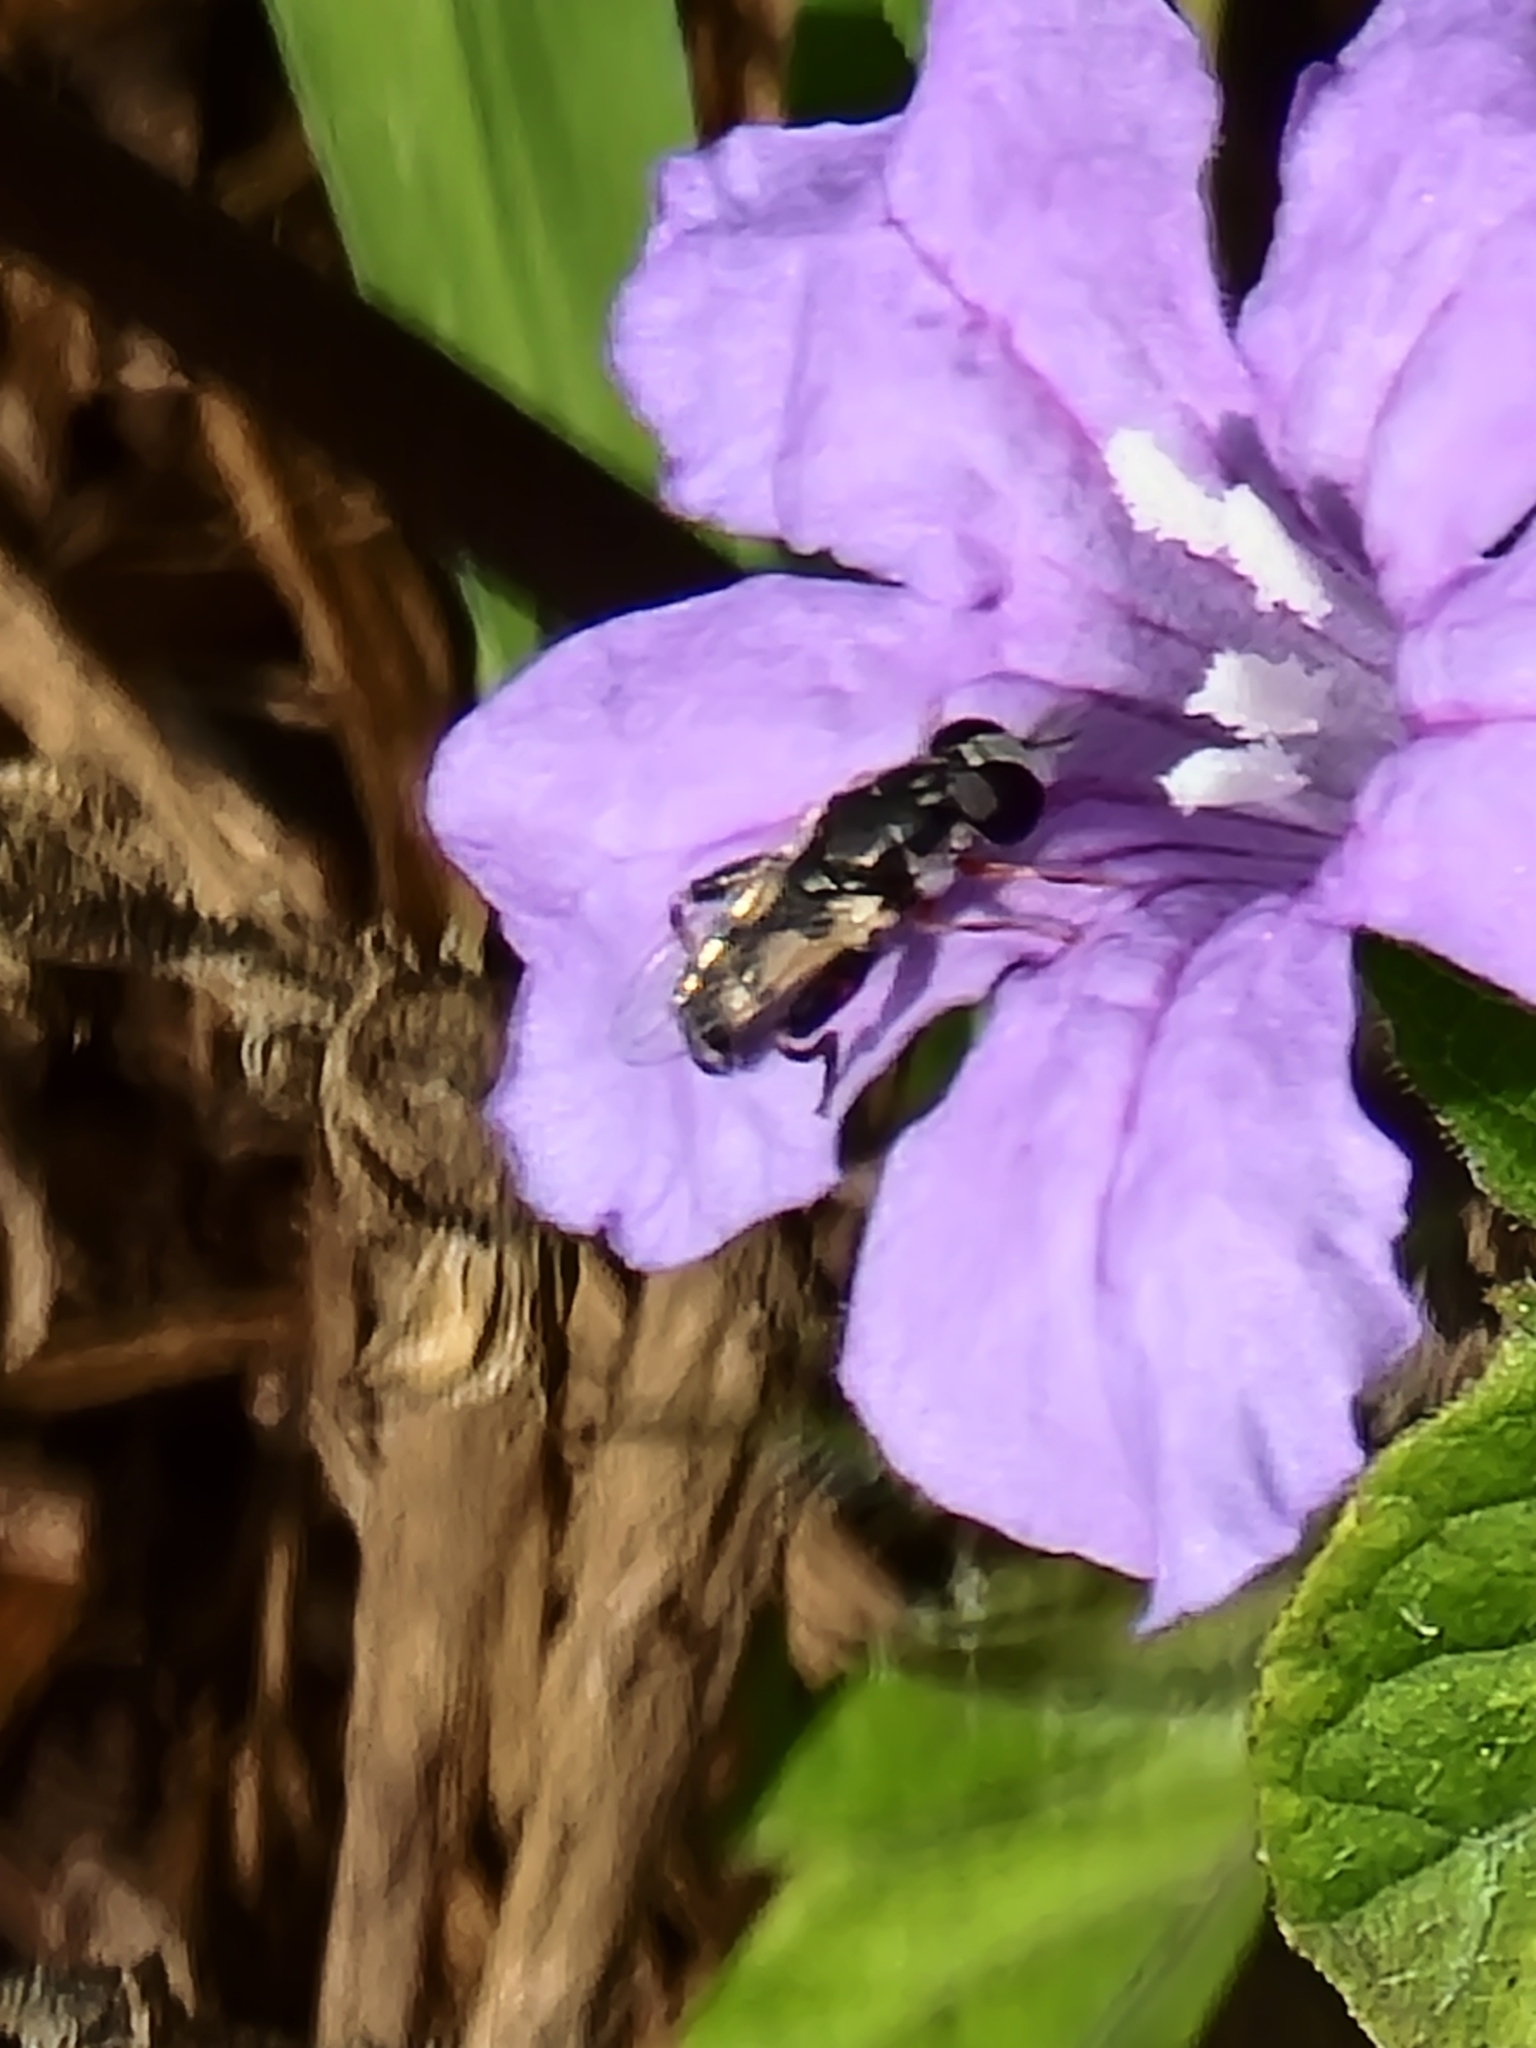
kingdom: Animalia
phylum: Arthropoda
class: Insecta
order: Diptera
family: Syrphidae
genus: Syritta
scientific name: Syritta flaviventris
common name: Syrphid fly
